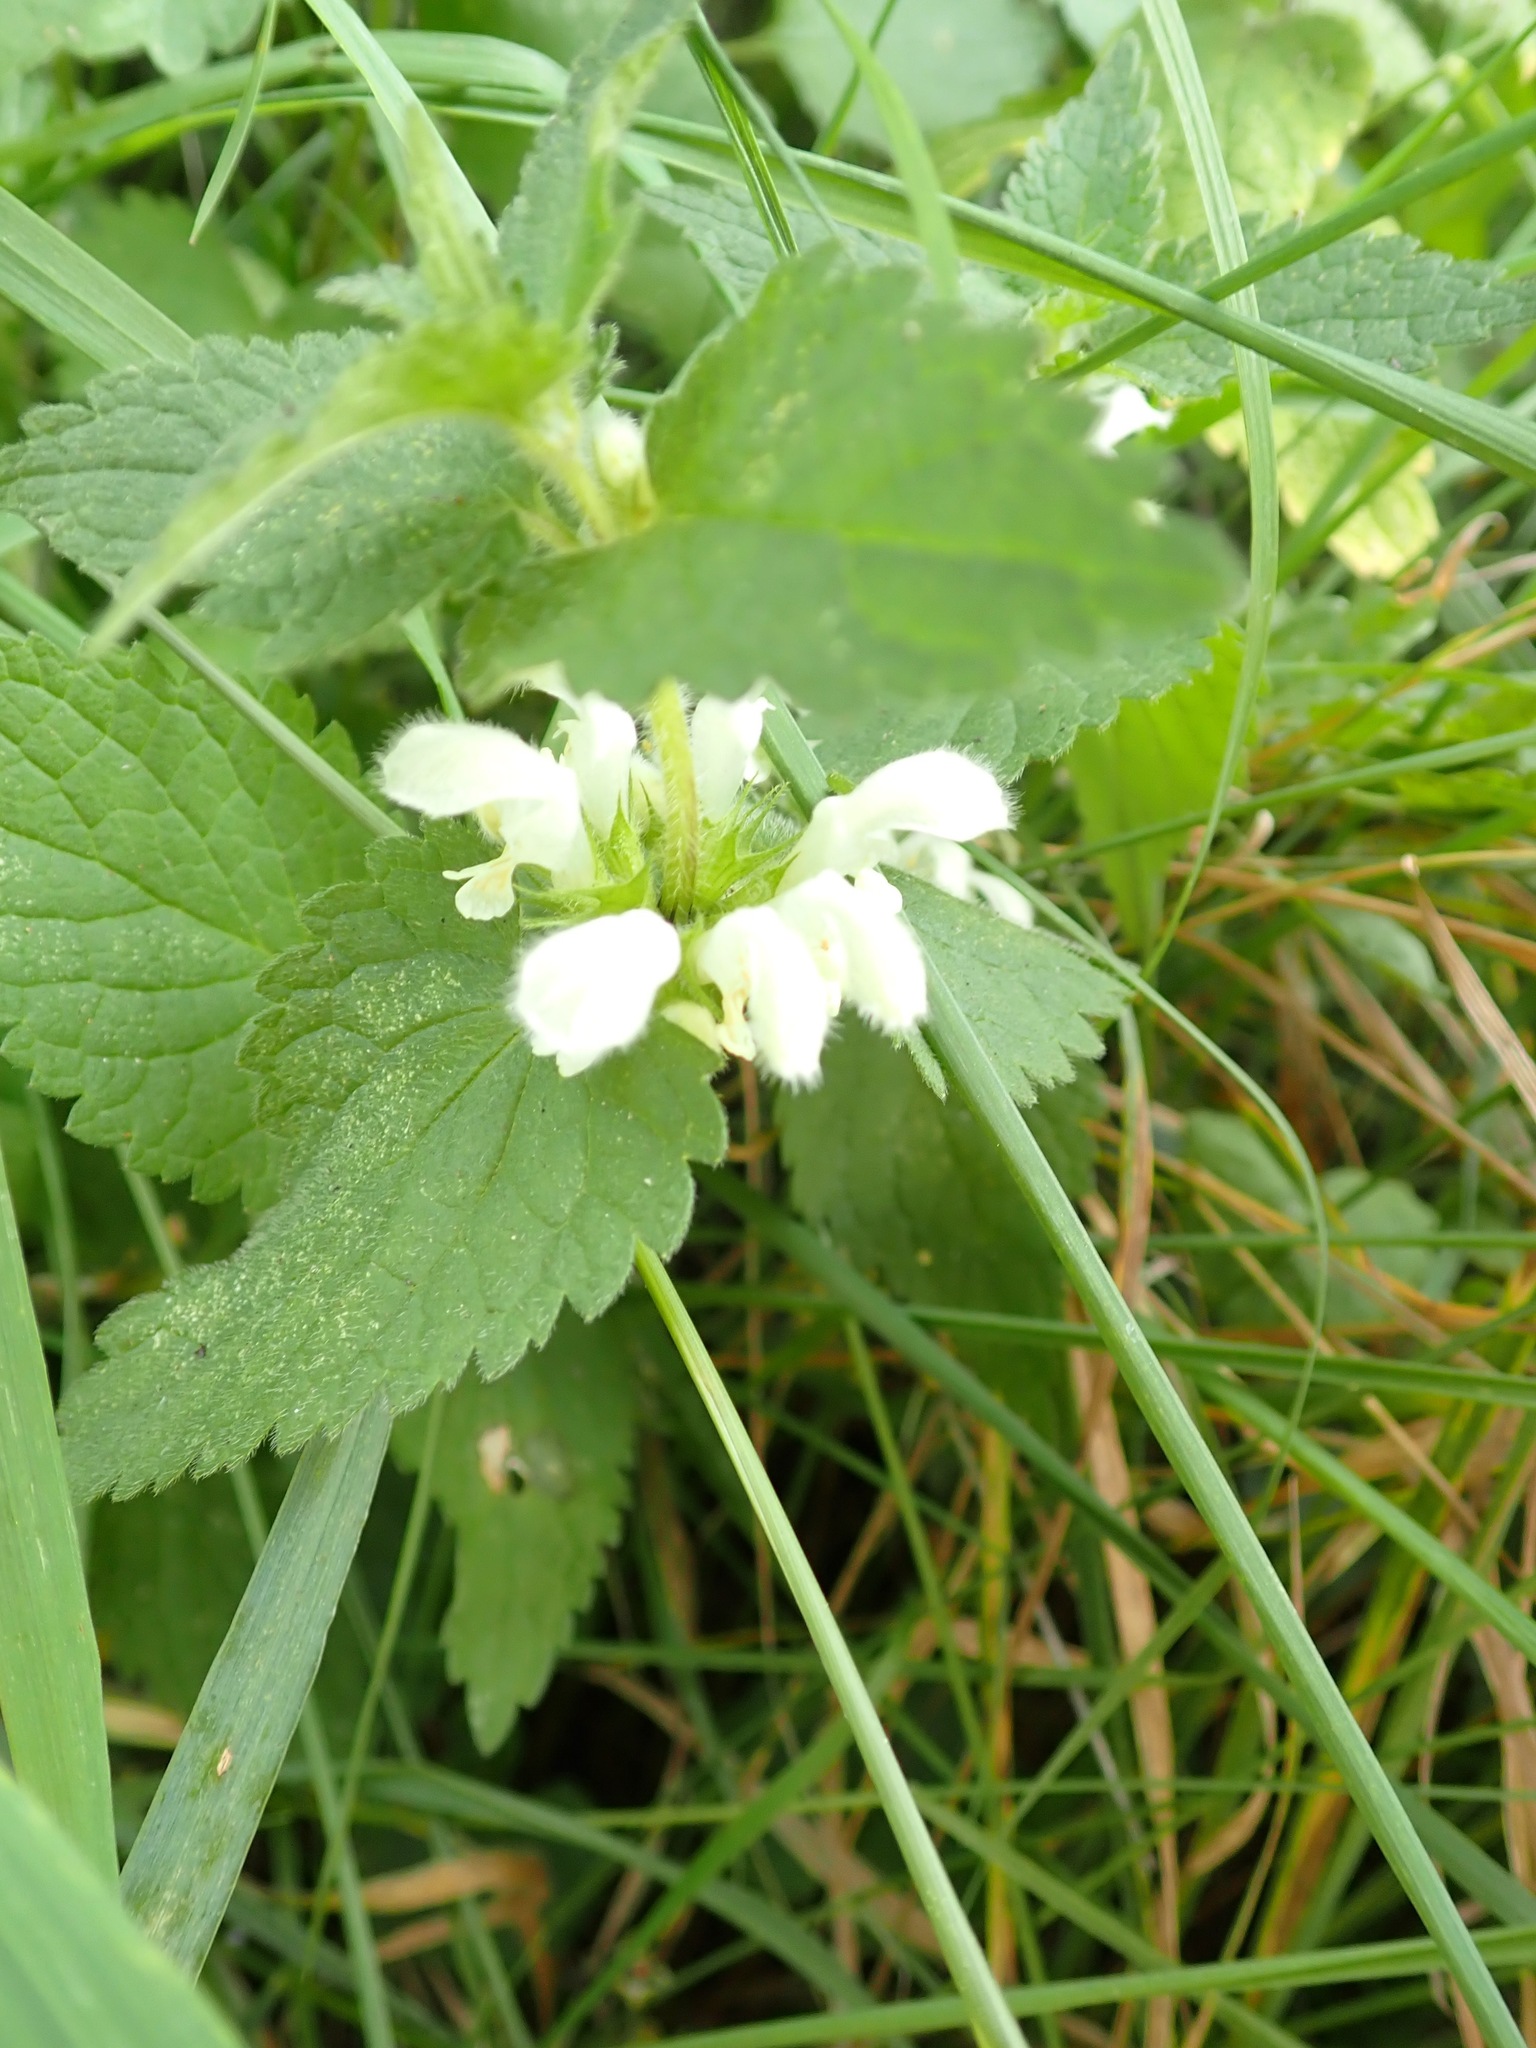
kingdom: Plantae
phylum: Tracheophyta
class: Magnoliopsida
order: Lamiales
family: Lamiaceae
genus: Lamium
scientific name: Lamium album
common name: White dead-nettle
